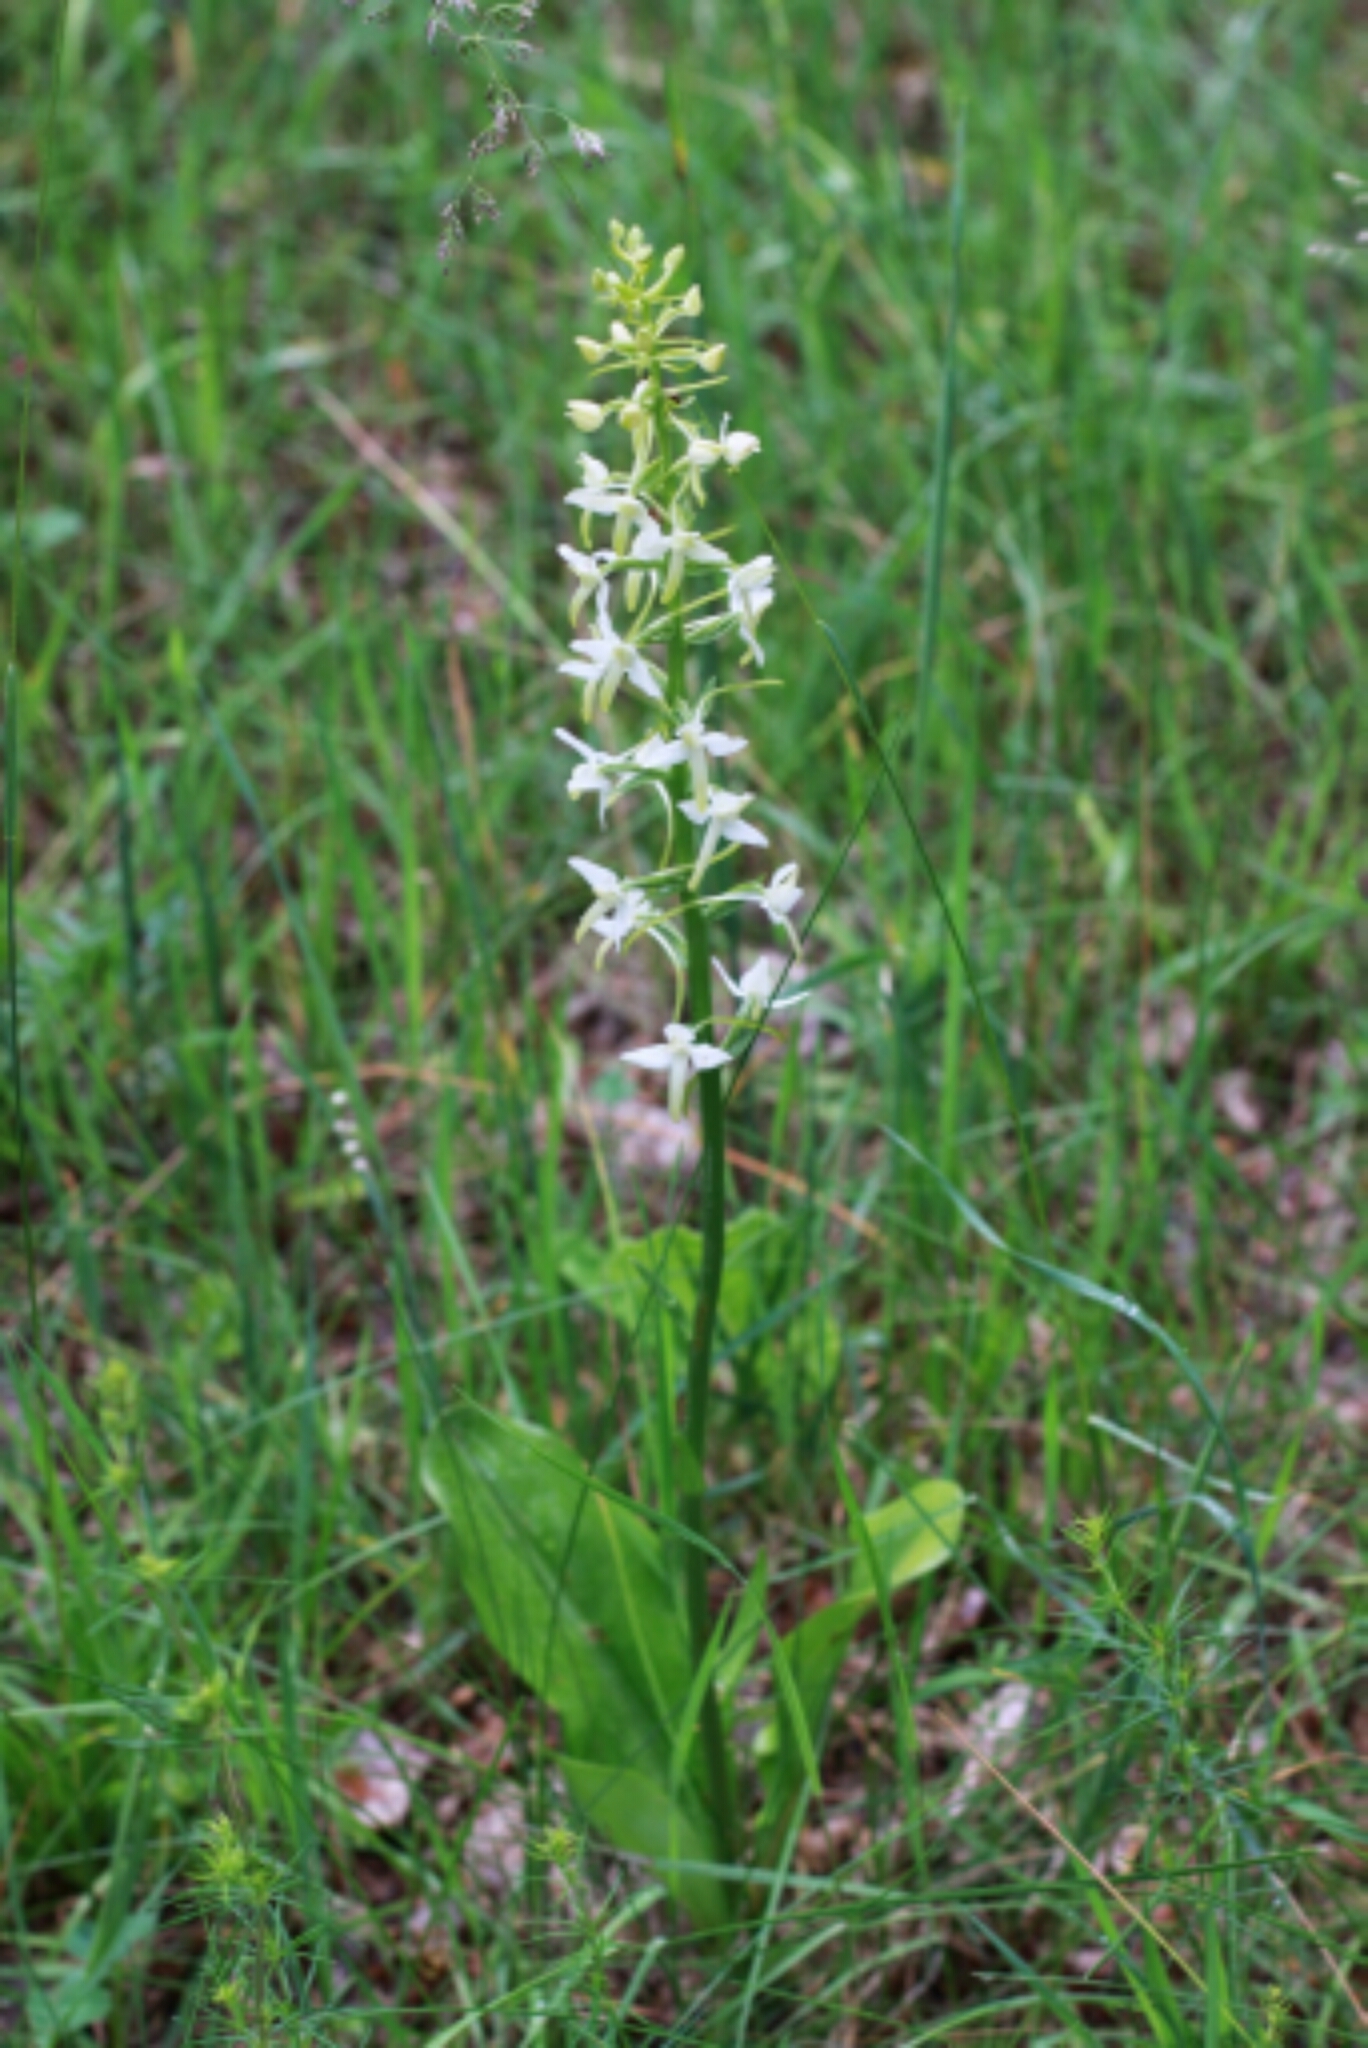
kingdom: Plantae
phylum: Tracheophyta
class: Liliopsida
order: Asparagales
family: Orchidaceae
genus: Platanthera
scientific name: Platanthera bifolia
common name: Lesser butterfly-orchid
